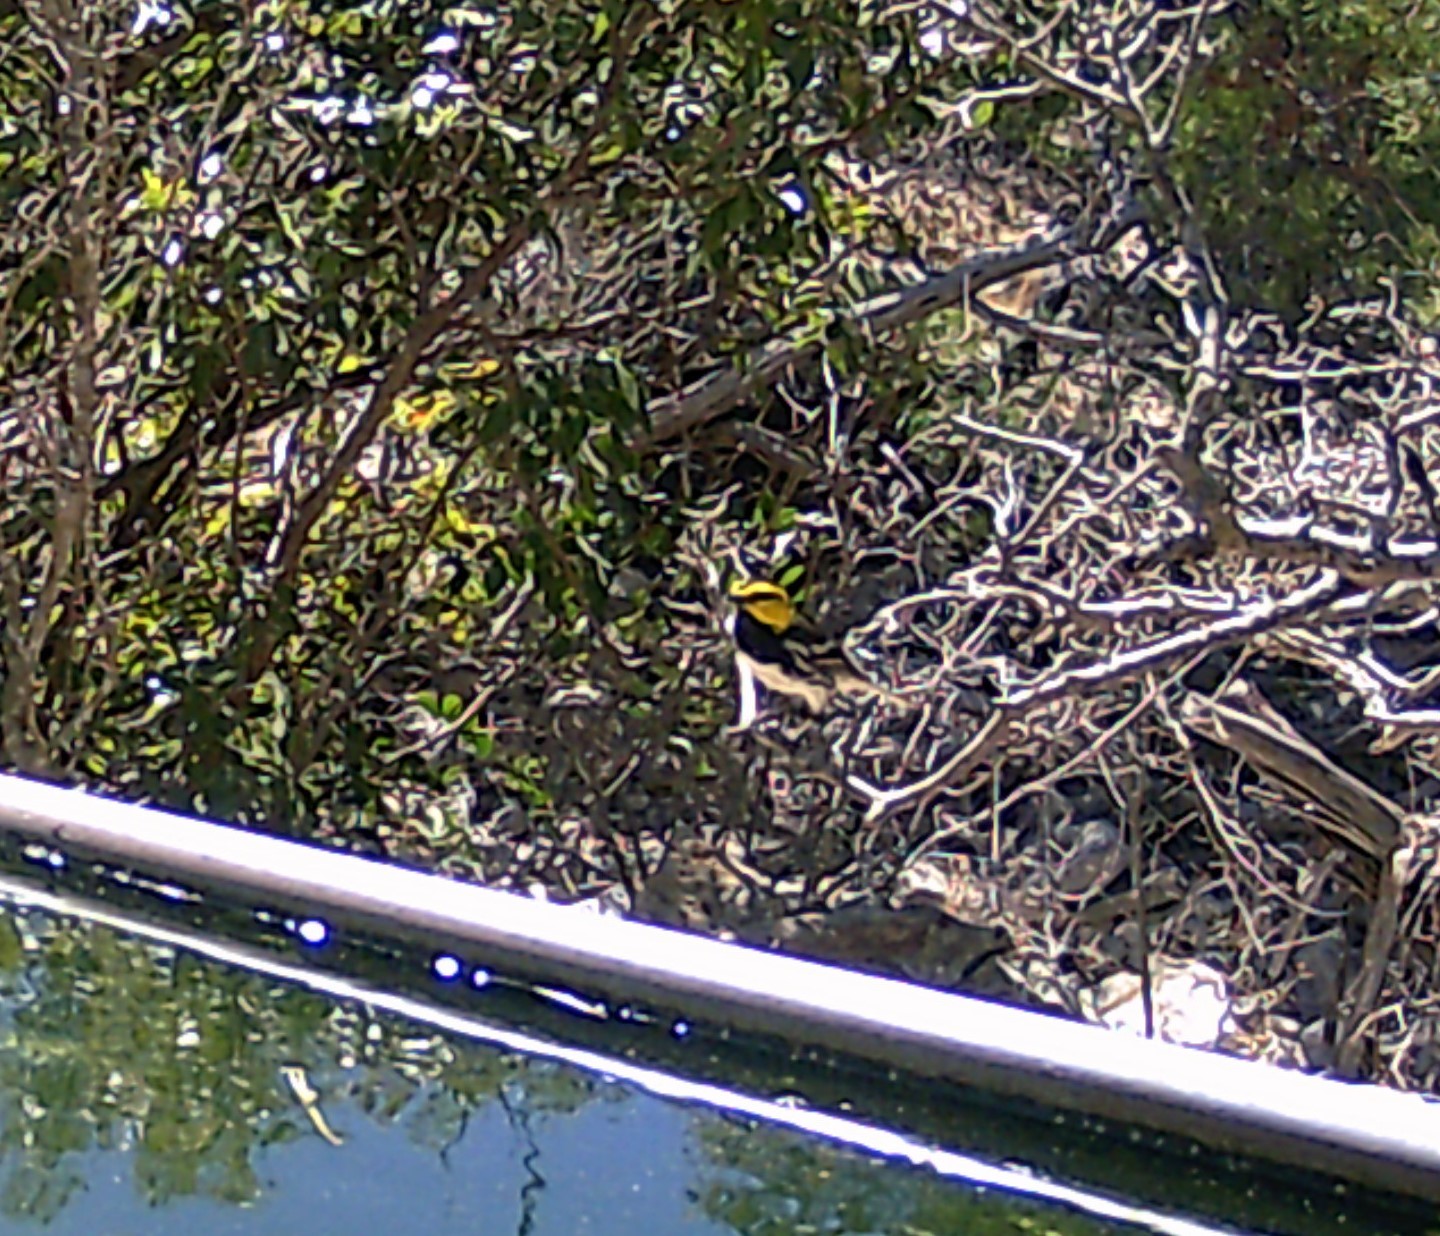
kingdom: Animalia
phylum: Chordata
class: Aves
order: Passeriformes
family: Parulidae
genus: Setophaga
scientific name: Setophaga chrysoparia
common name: Golden-cheeked warbler
